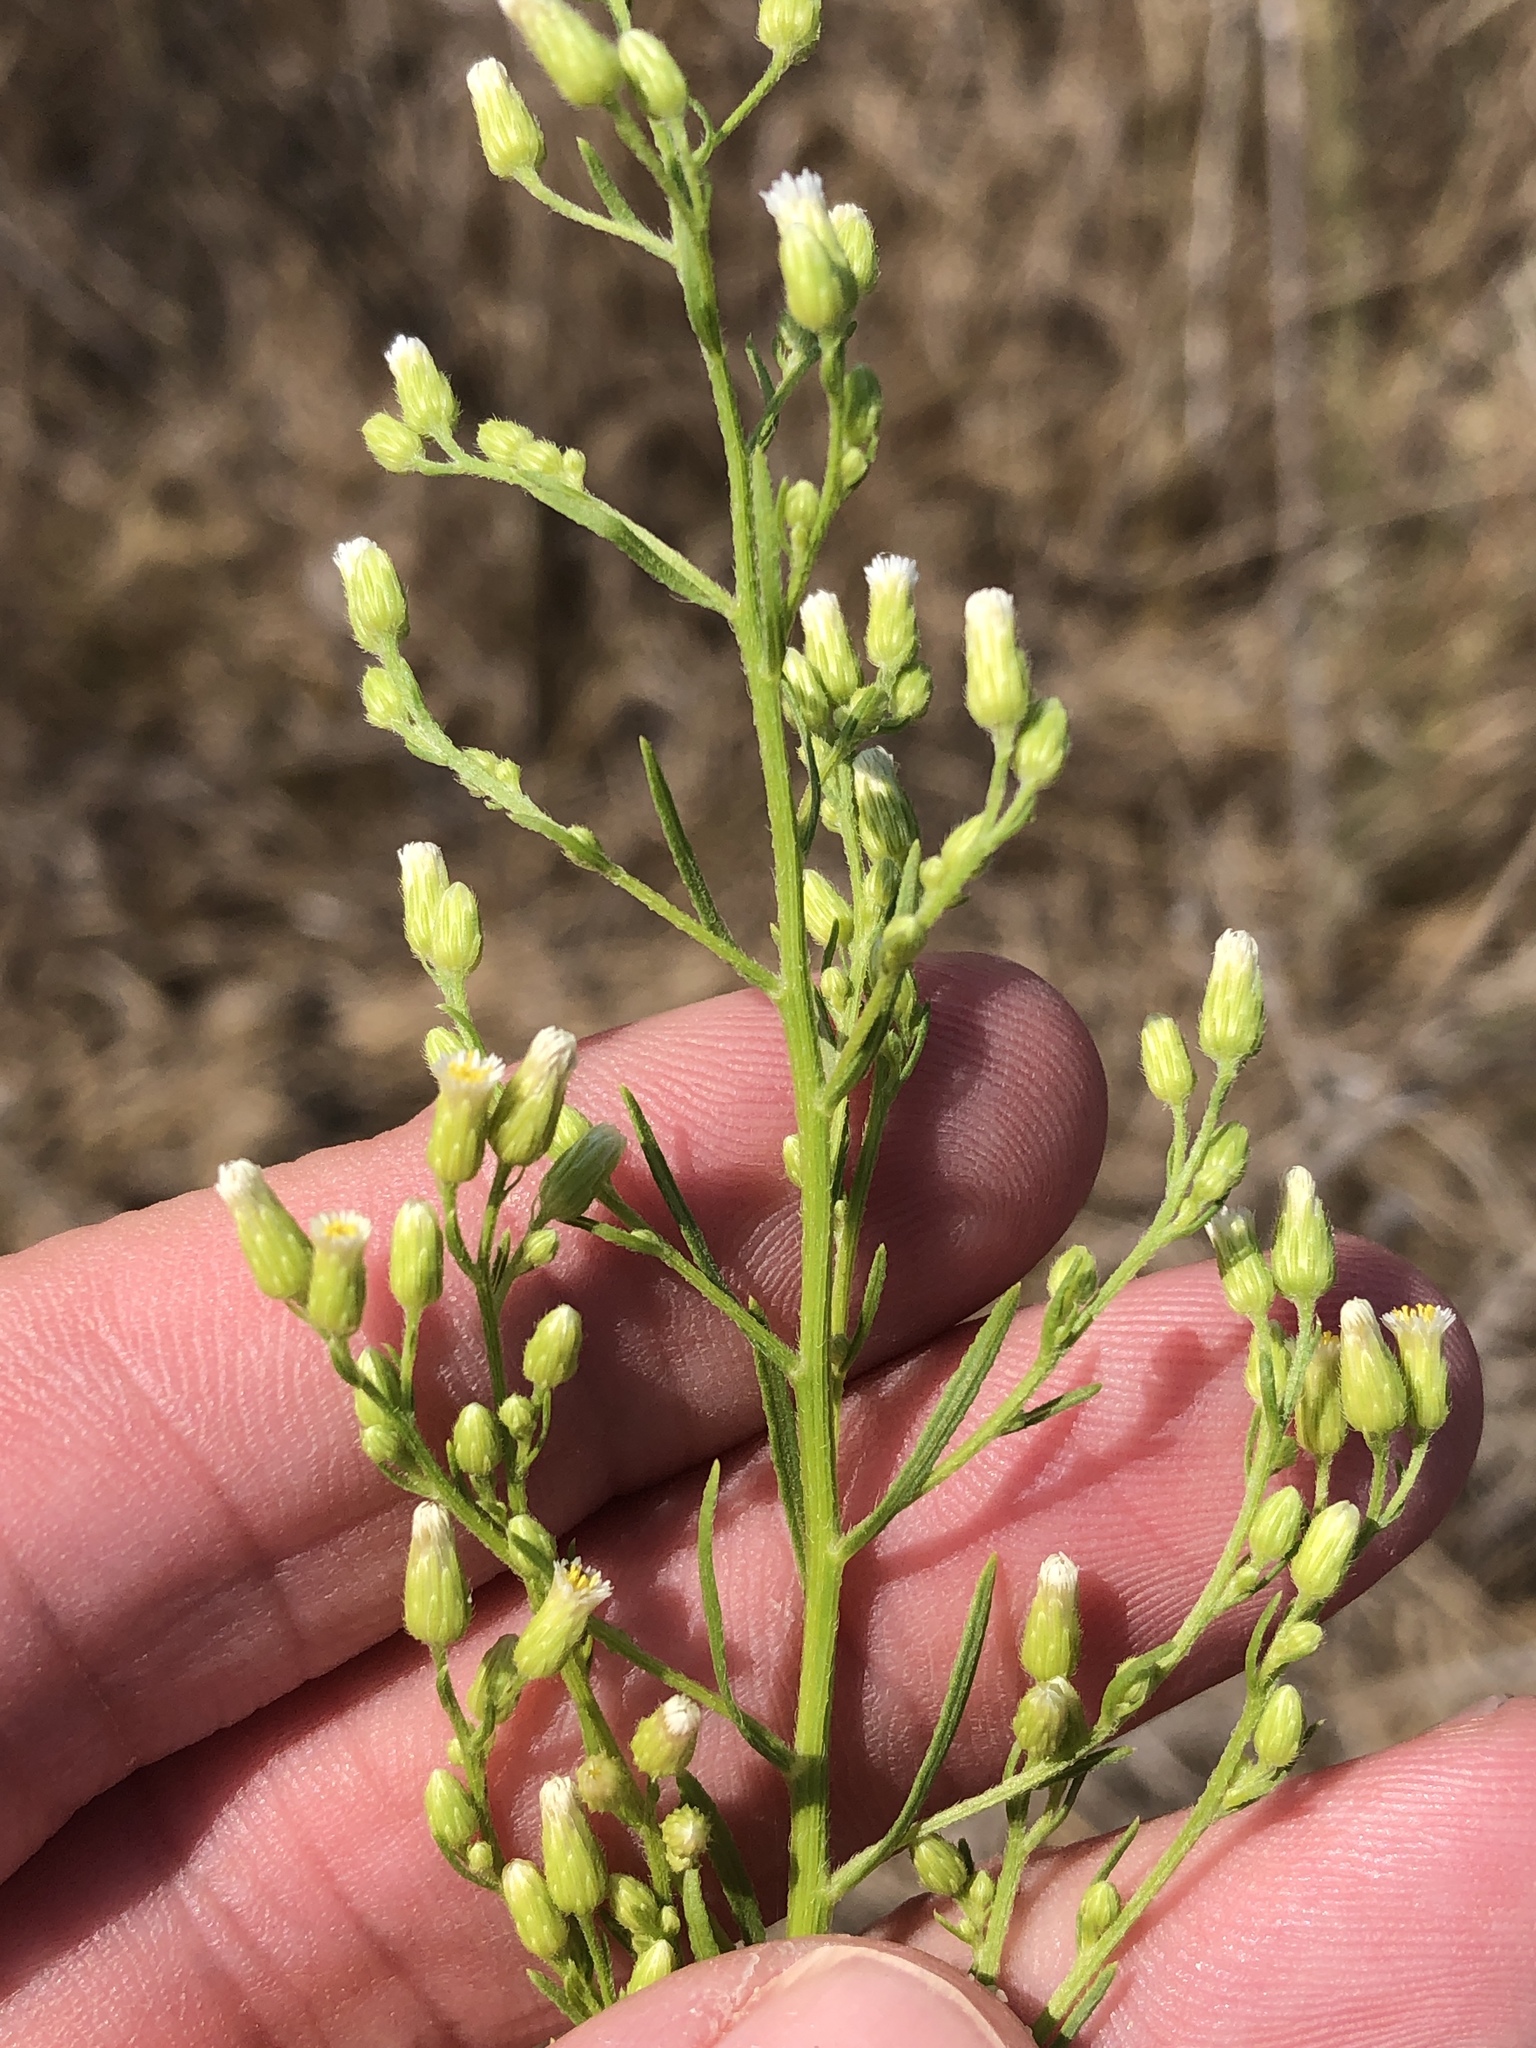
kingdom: Plantae
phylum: Tracheophyta
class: Magnoliopsida
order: Asterales
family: Asteraceae
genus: Erigeron
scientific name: Erigeron canadensis
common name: Canadian fleabane
